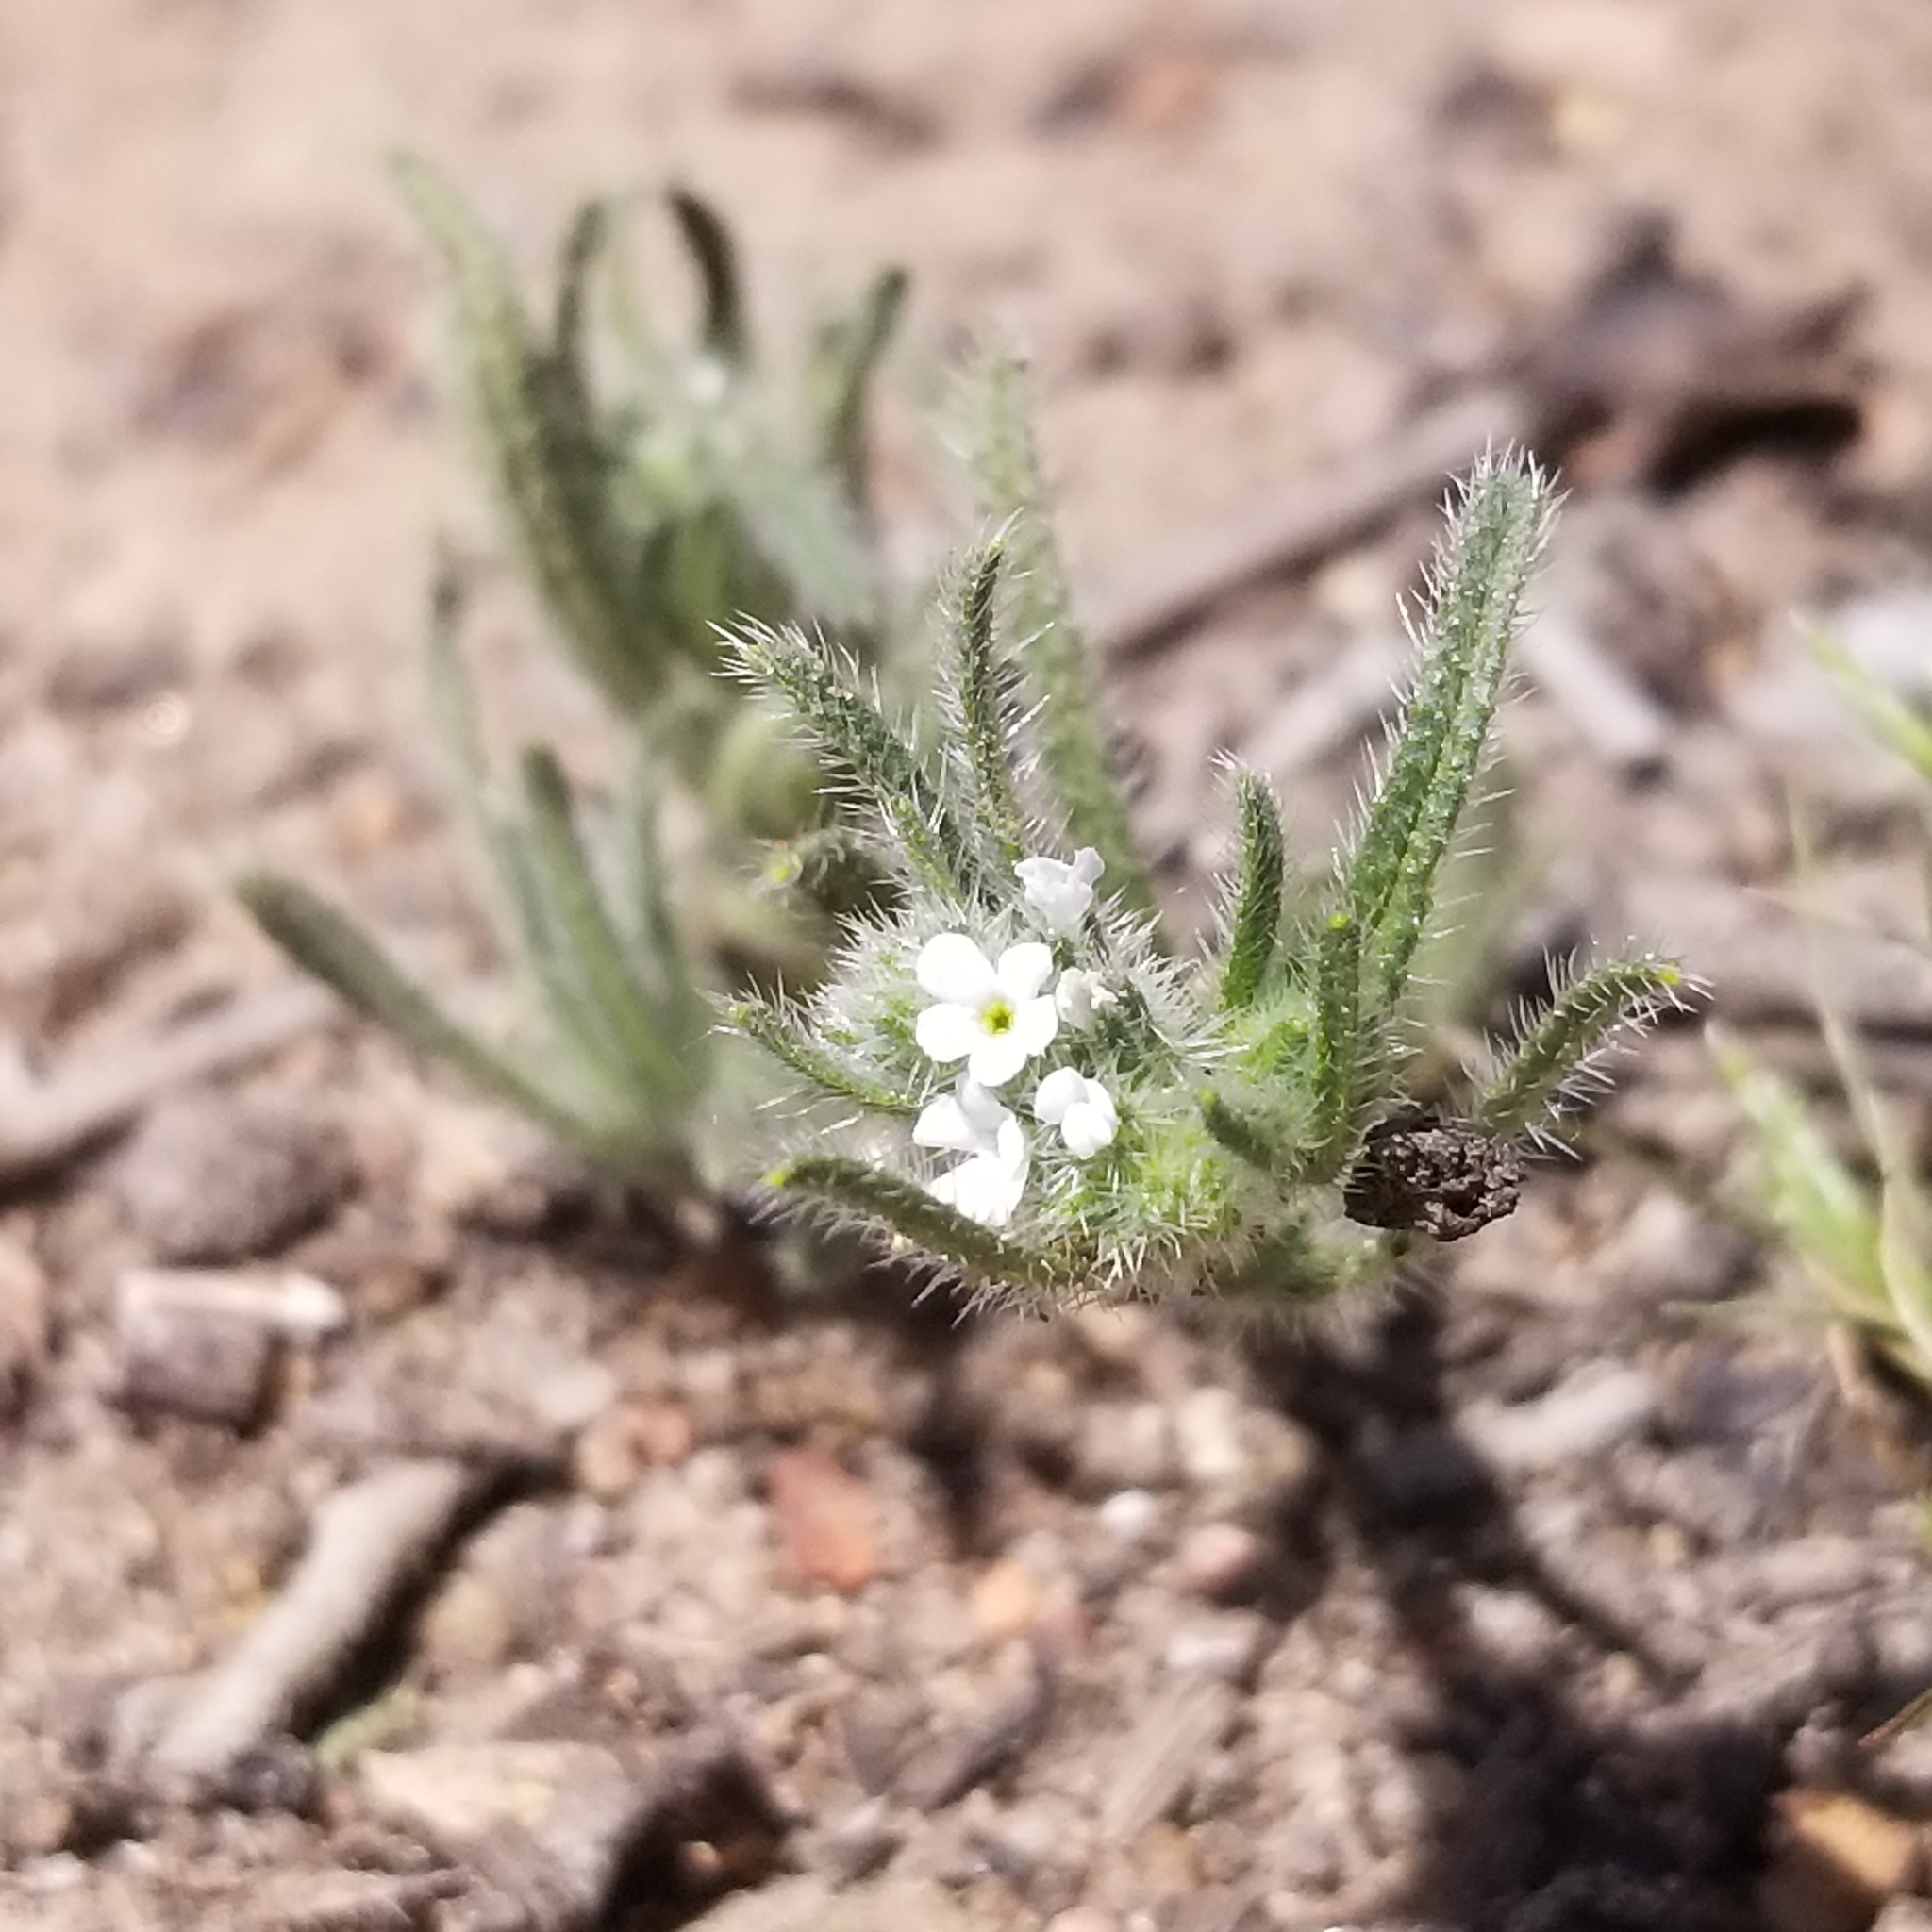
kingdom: Plantae
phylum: Tracheophyta
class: Magnoliopsida
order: Boraginales
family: Boraginaceae
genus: Johnstonella
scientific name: Johnstonella angustifolia
